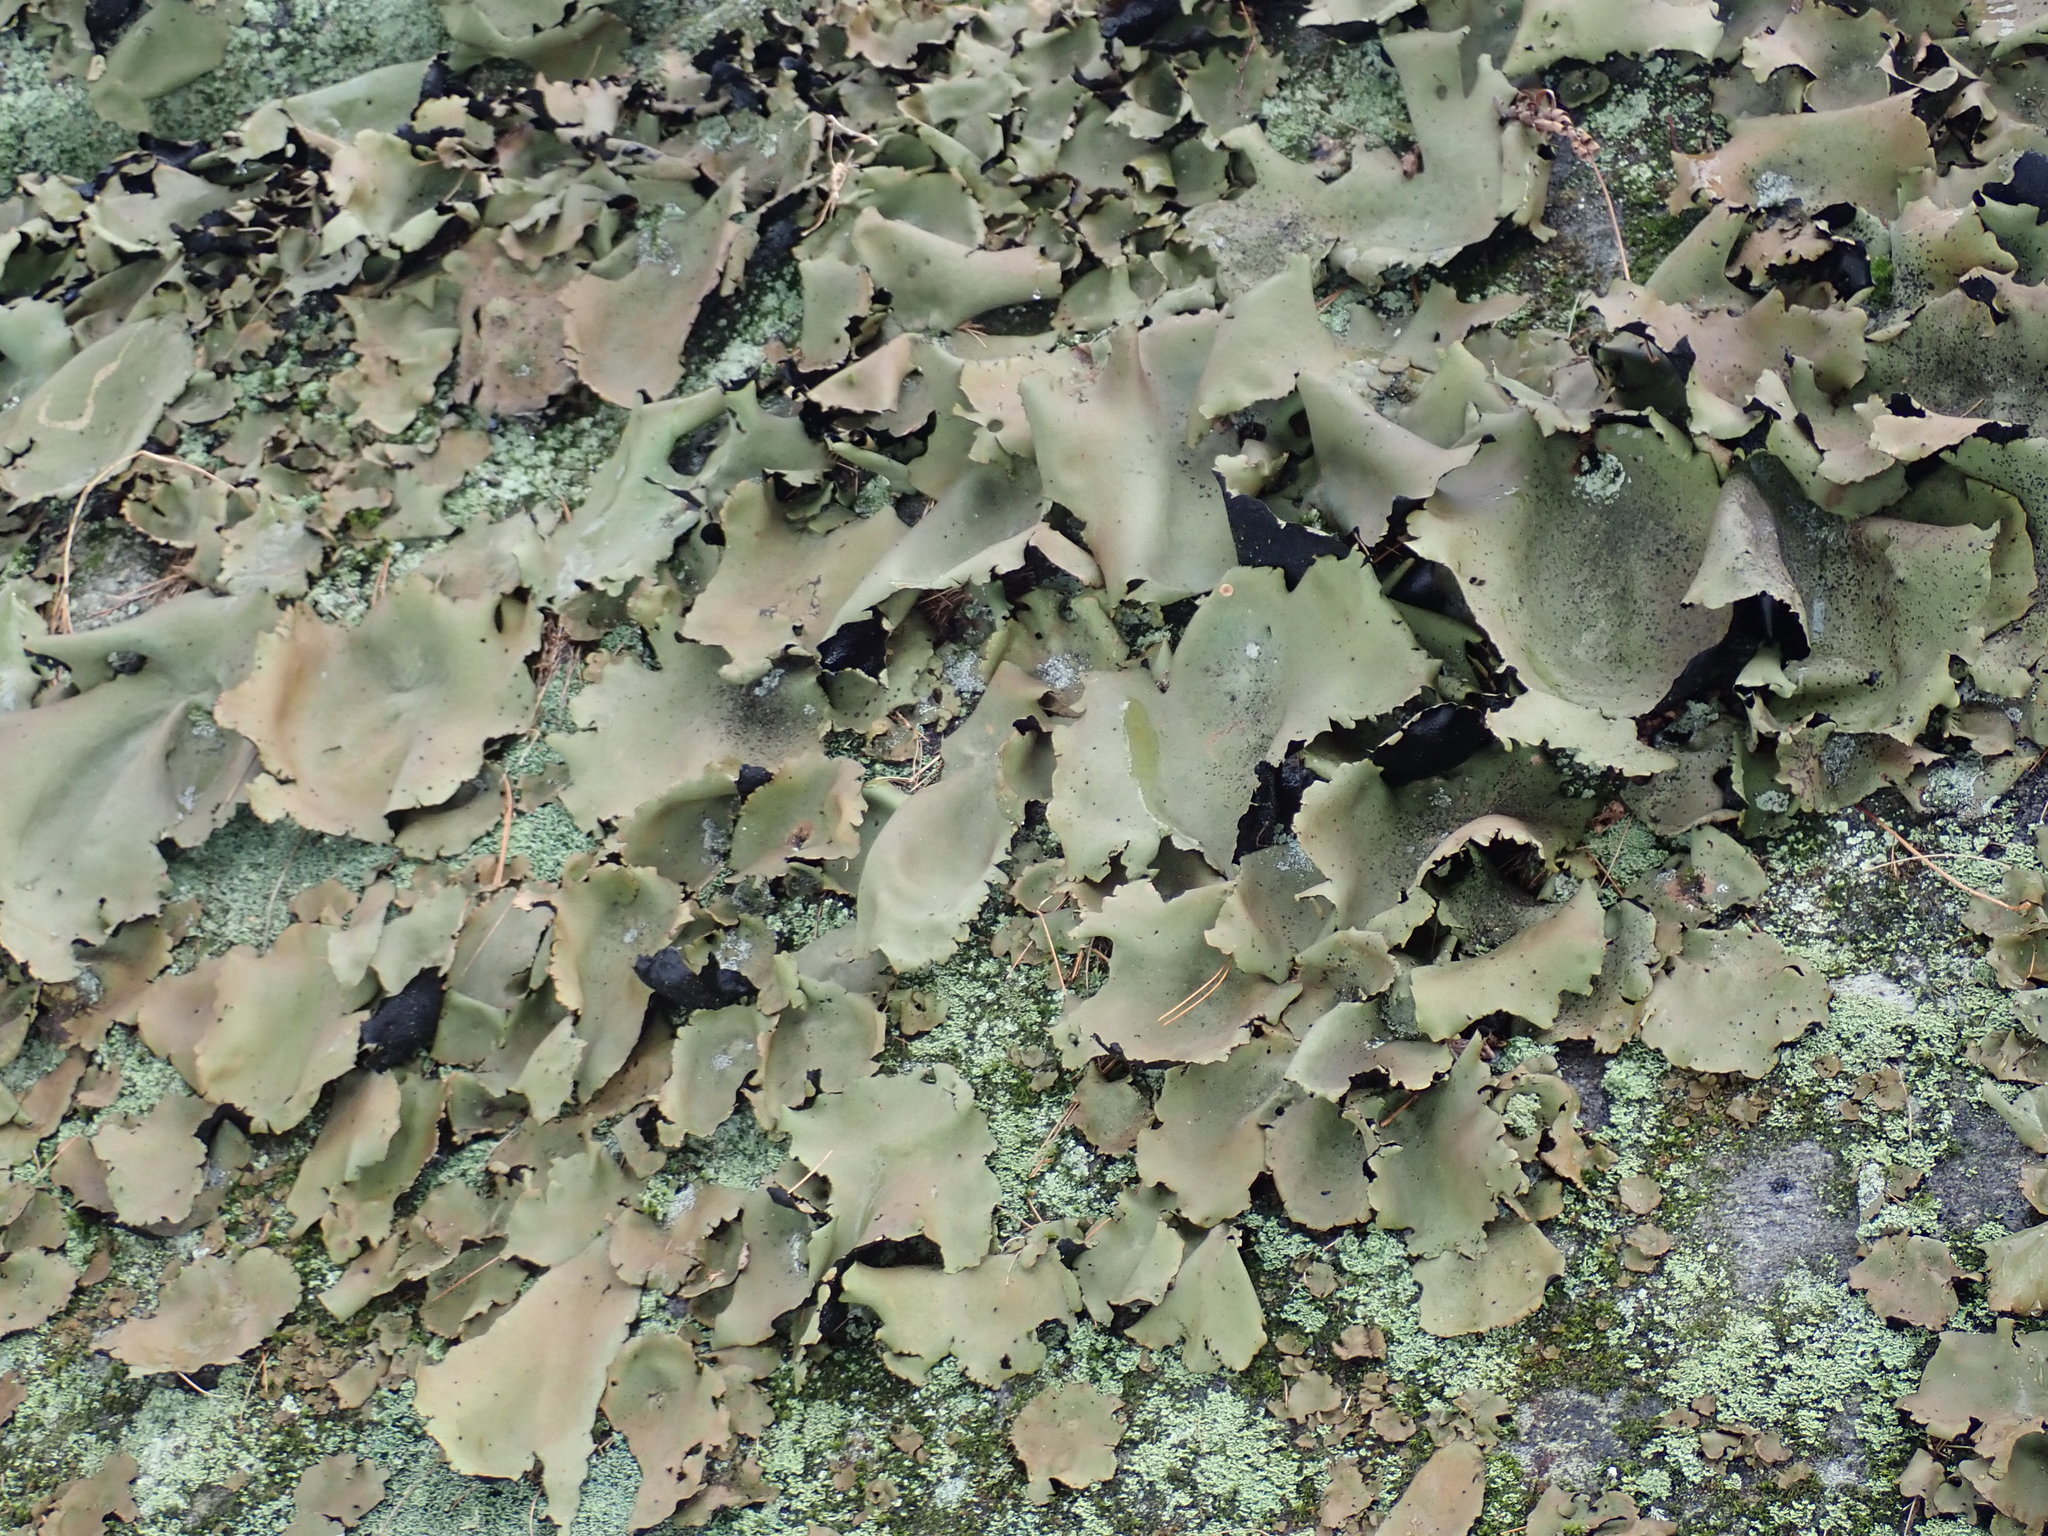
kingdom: Fungi
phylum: Ascomycota
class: Lecanoromycetes
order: Umbilicariales
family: Umbilicariaceae
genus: Umbilicaria
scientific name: Umbilicaria mammulata
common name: Smooth rock tripe
